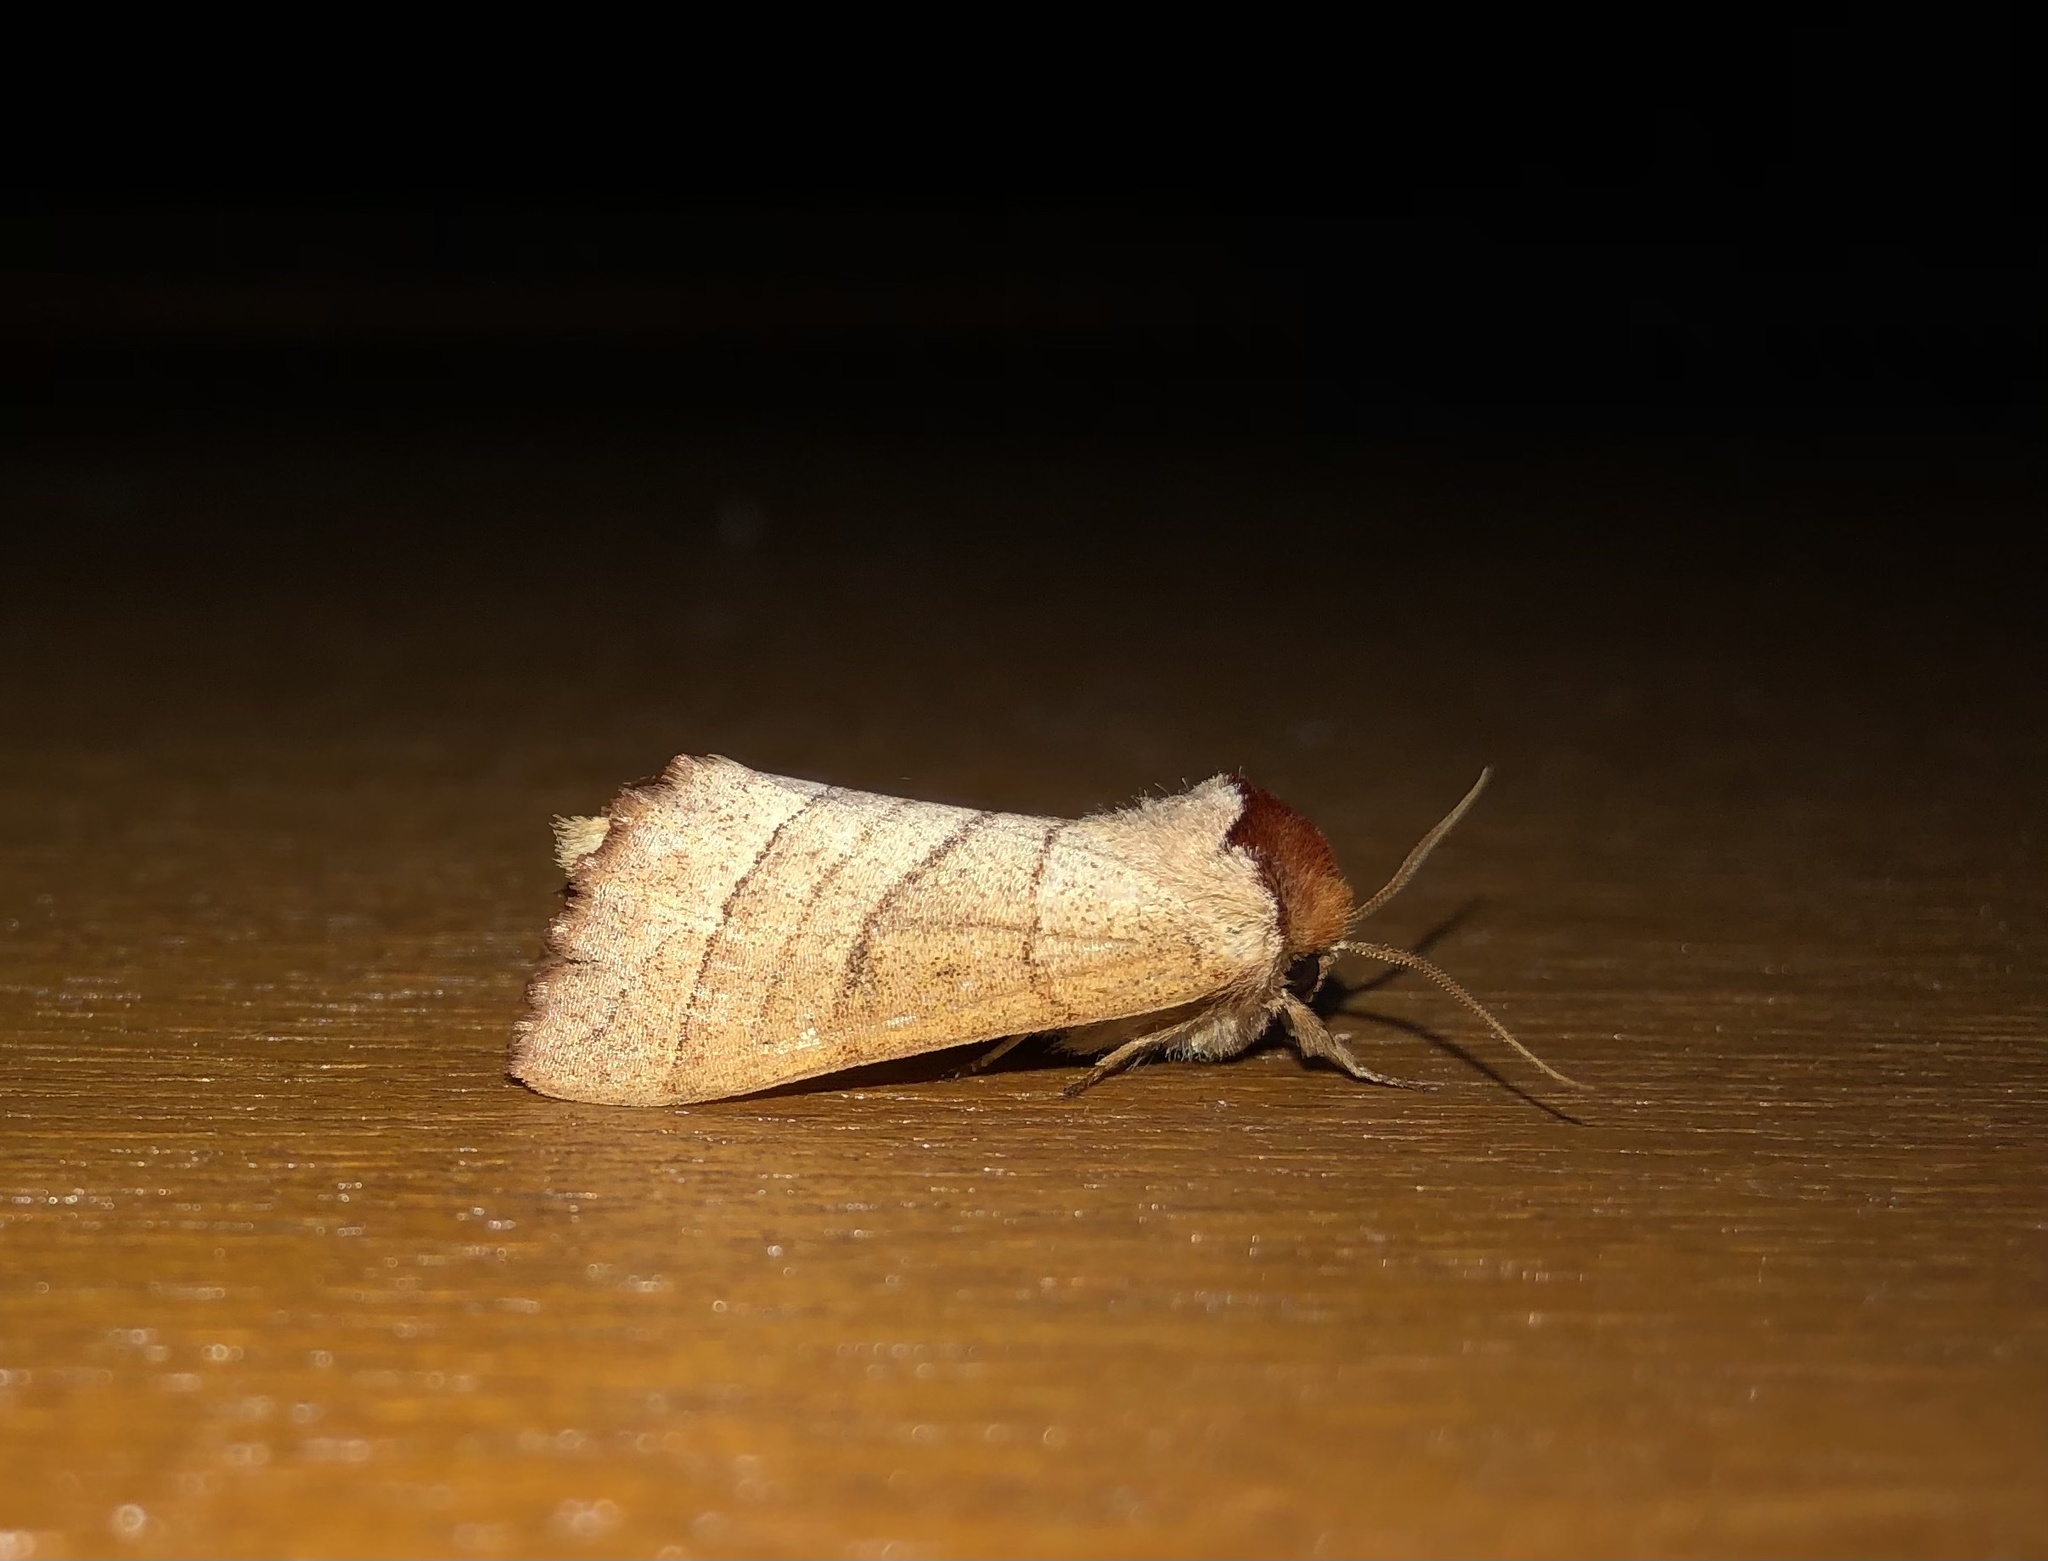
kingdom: Animalia
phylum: Arthropoda
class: Insecta
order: Lepidoptera
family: Notodontidae
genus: Datana
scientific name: Datana ministra
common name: Yellow-necked caterpillar moth
